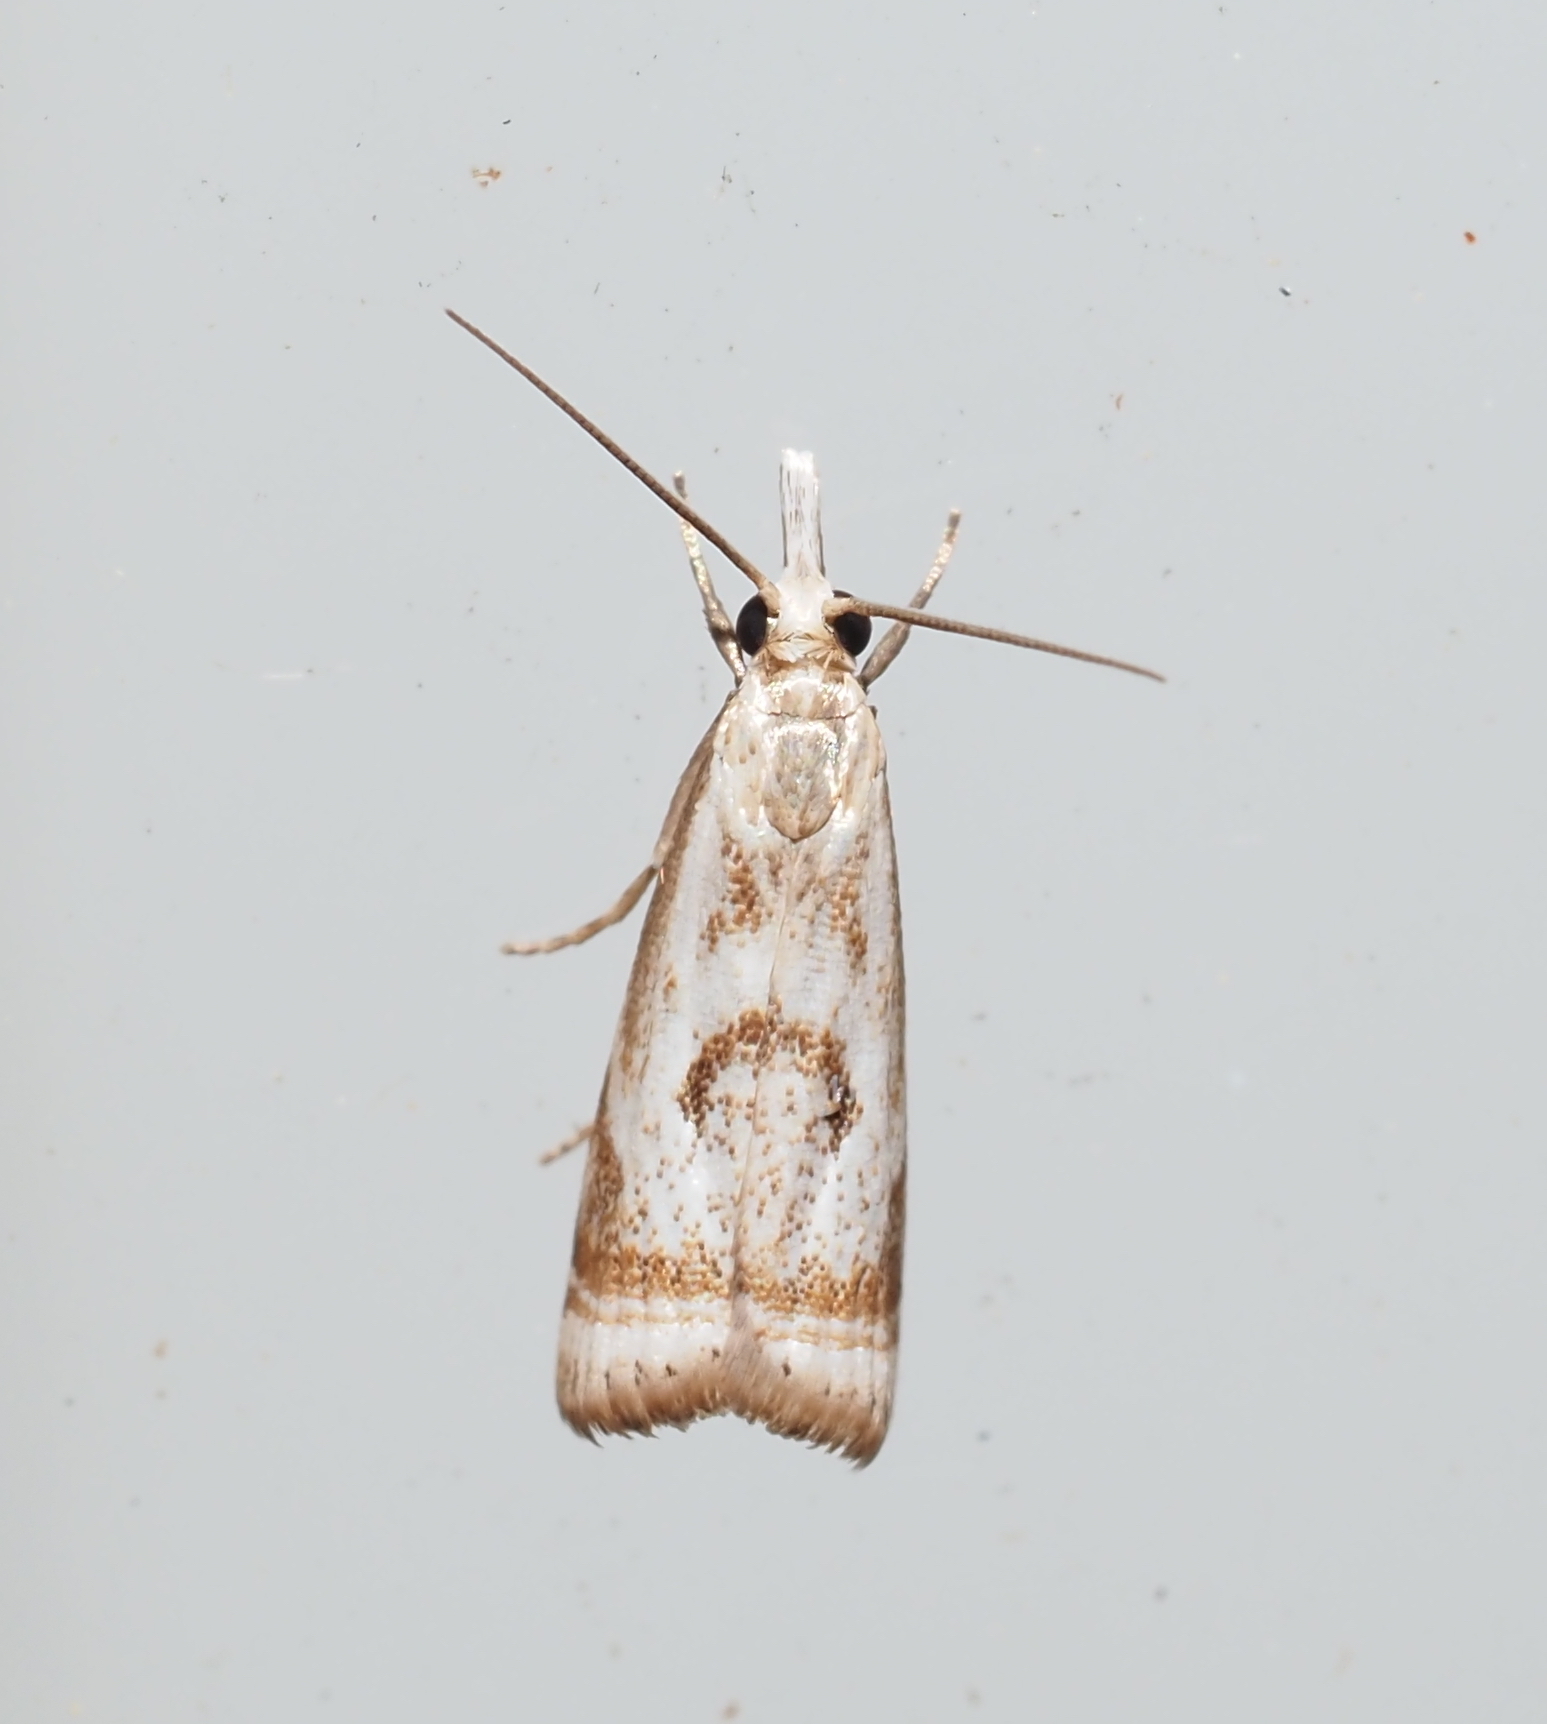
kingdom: Animalia
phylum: Arthropoda
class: Insecta
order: Lepidoptera
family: Crambidae
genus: Microcrambus
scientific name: Microcrambus elegans
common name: Elegant grass-veneer
